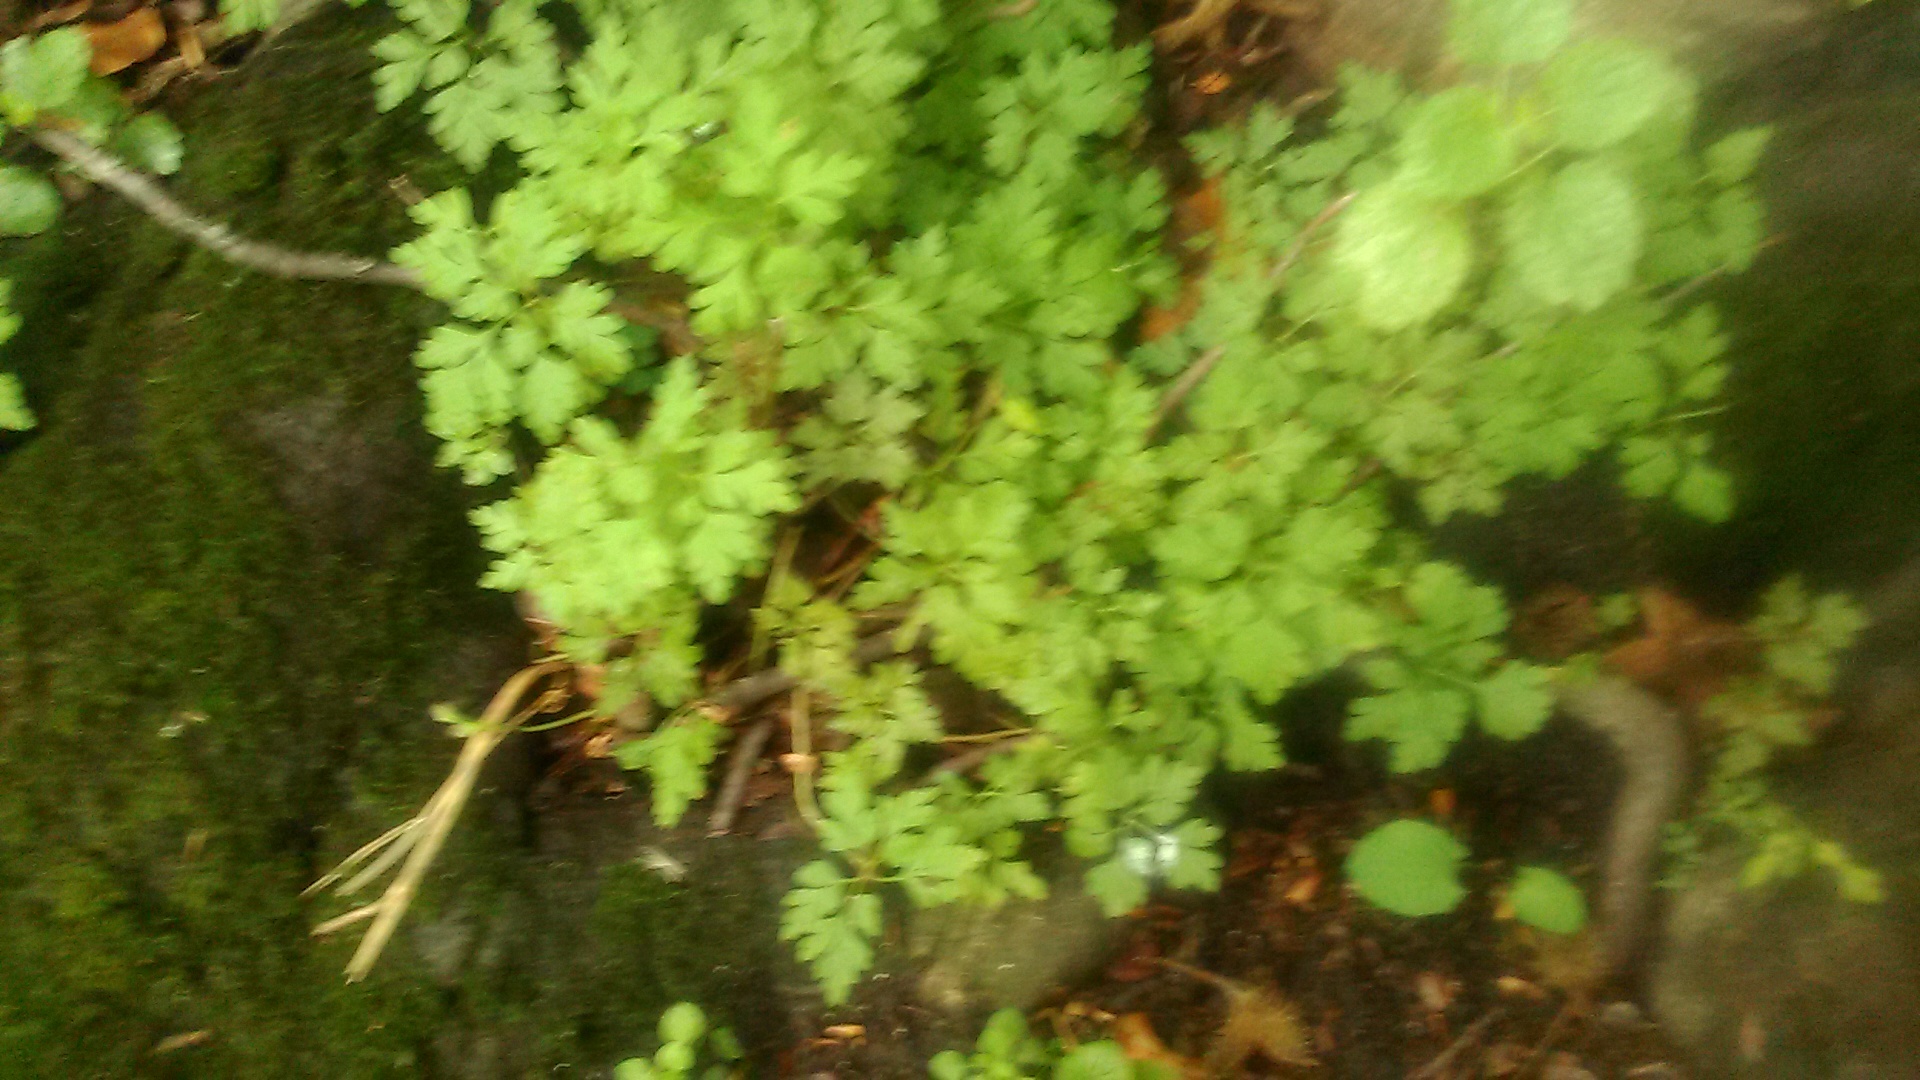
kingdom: Plantae
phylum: Tracheophyta
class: Magnoliopsida
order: Geraniales
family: Geraniaceae
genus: Geranium
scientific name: Geranium robertianum
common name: Herb-robert
